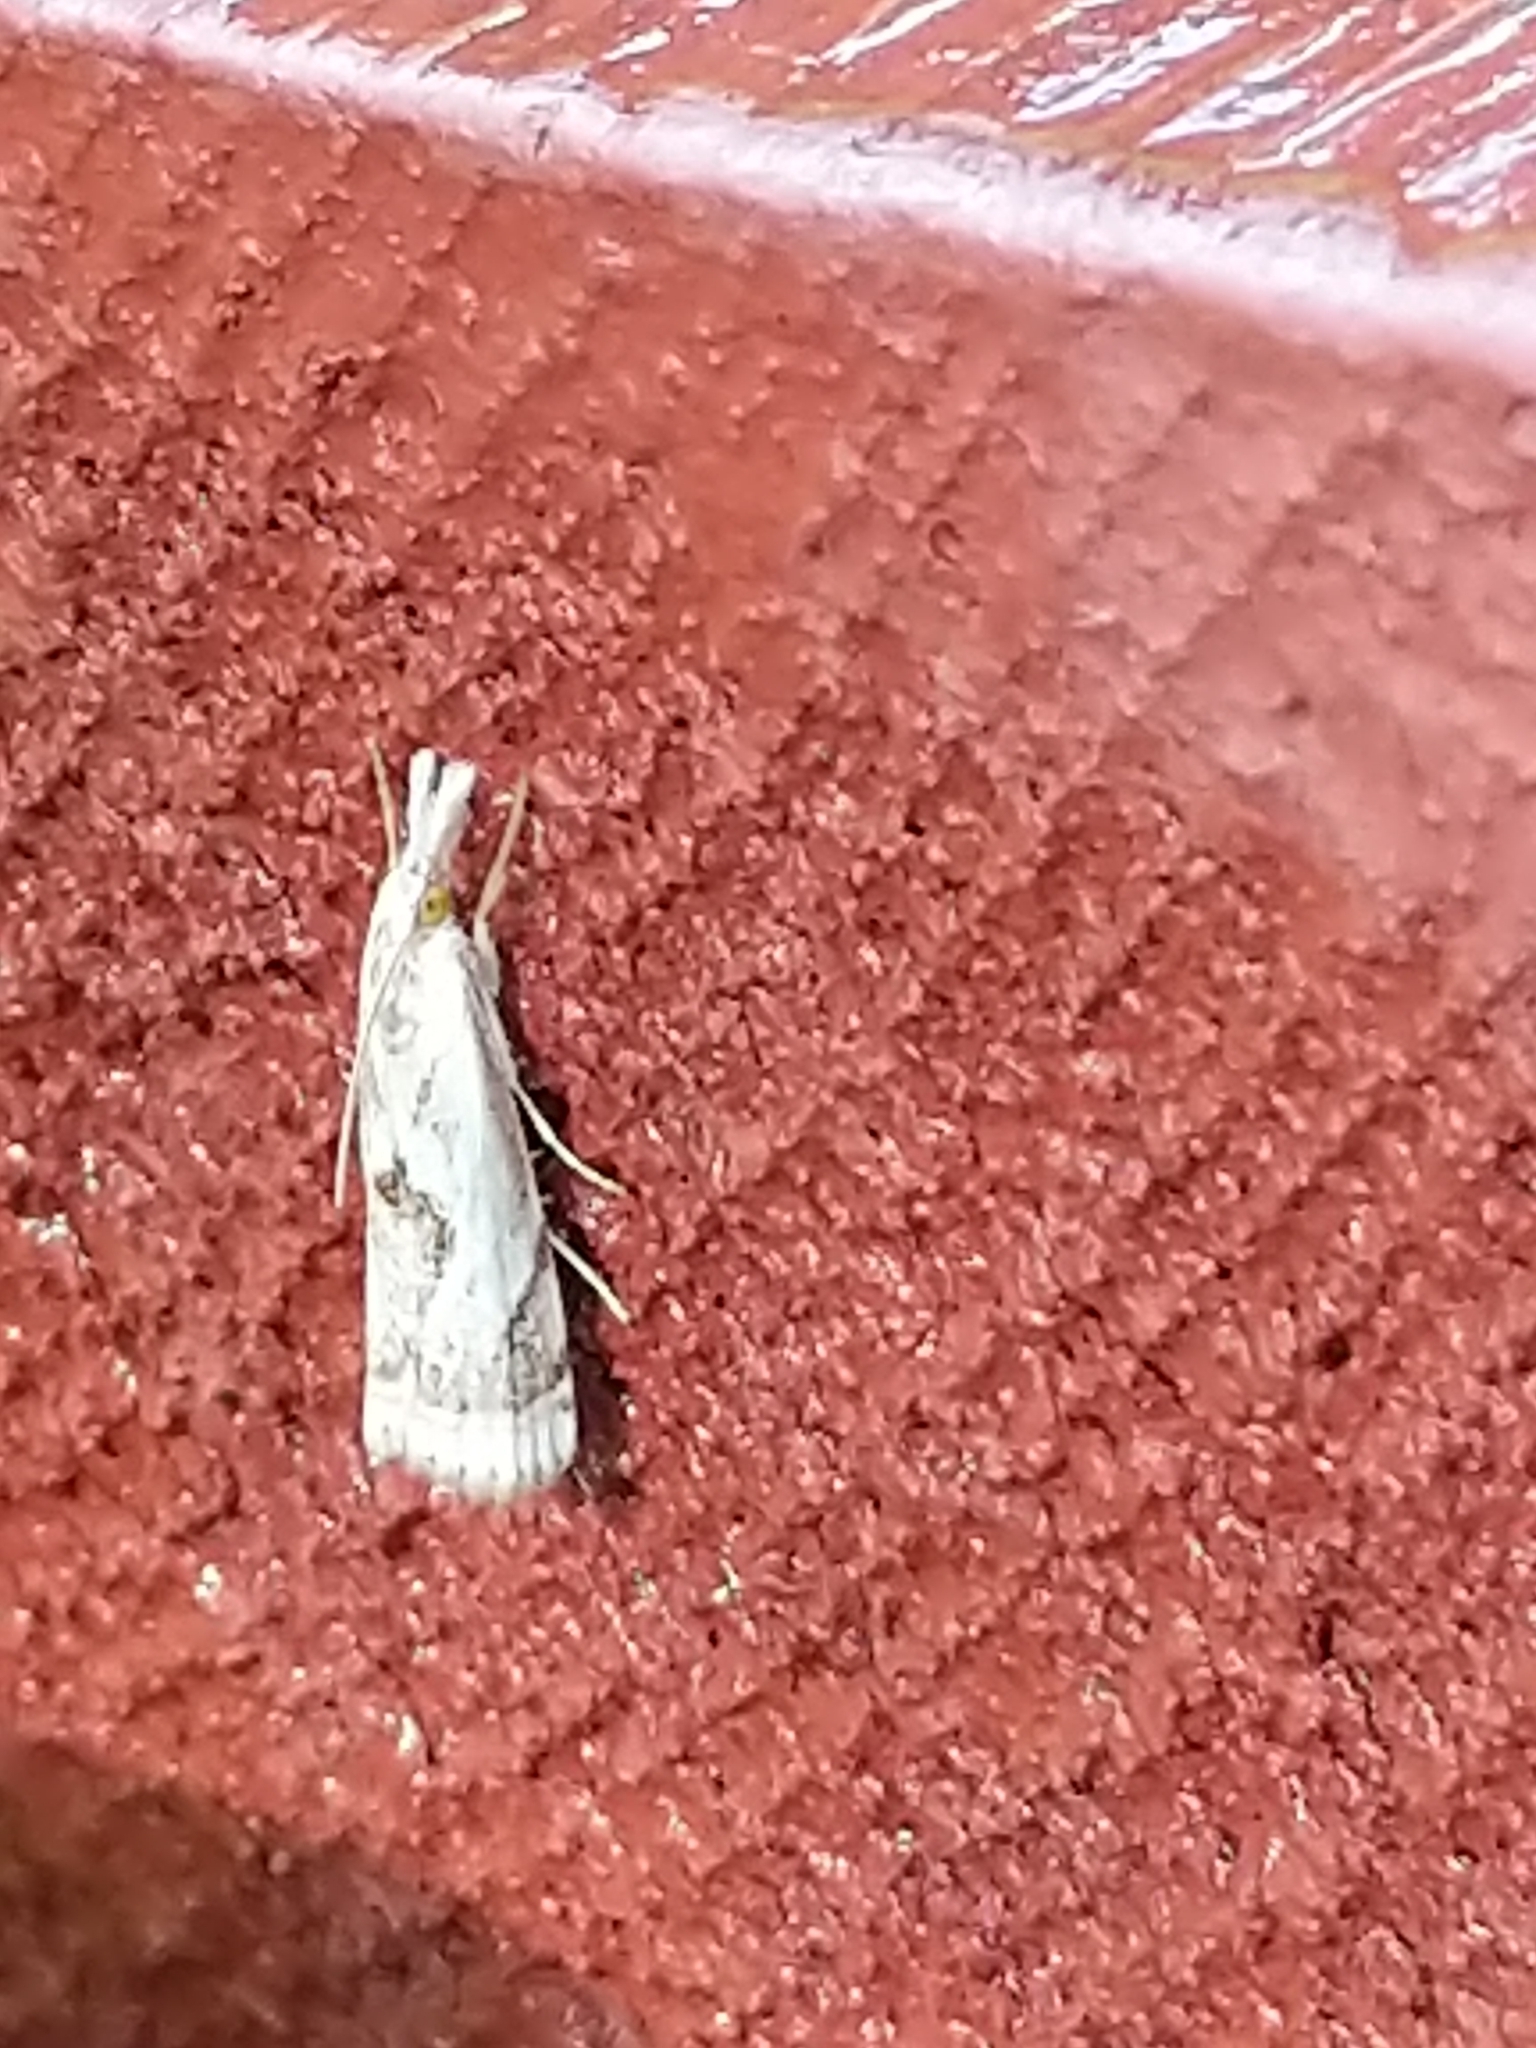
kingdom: Animalia
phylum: Arthropoda
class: Insecta
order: Lepidoptera
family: Crambidae
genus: Microcrambus
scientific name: Microcrambus elegans
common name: Elegant grass-veneer
